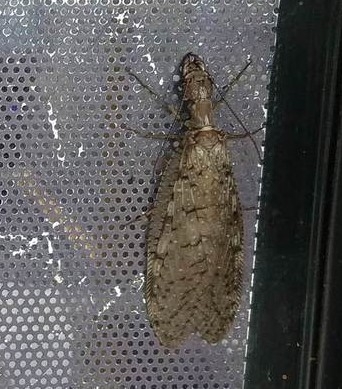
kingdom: Animalia
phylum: Arthropoda
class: Insecta
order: Megaloptera
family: Corydalidae
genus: Corydalus
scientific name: Corydalus cornutus
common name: Dobsonfly
